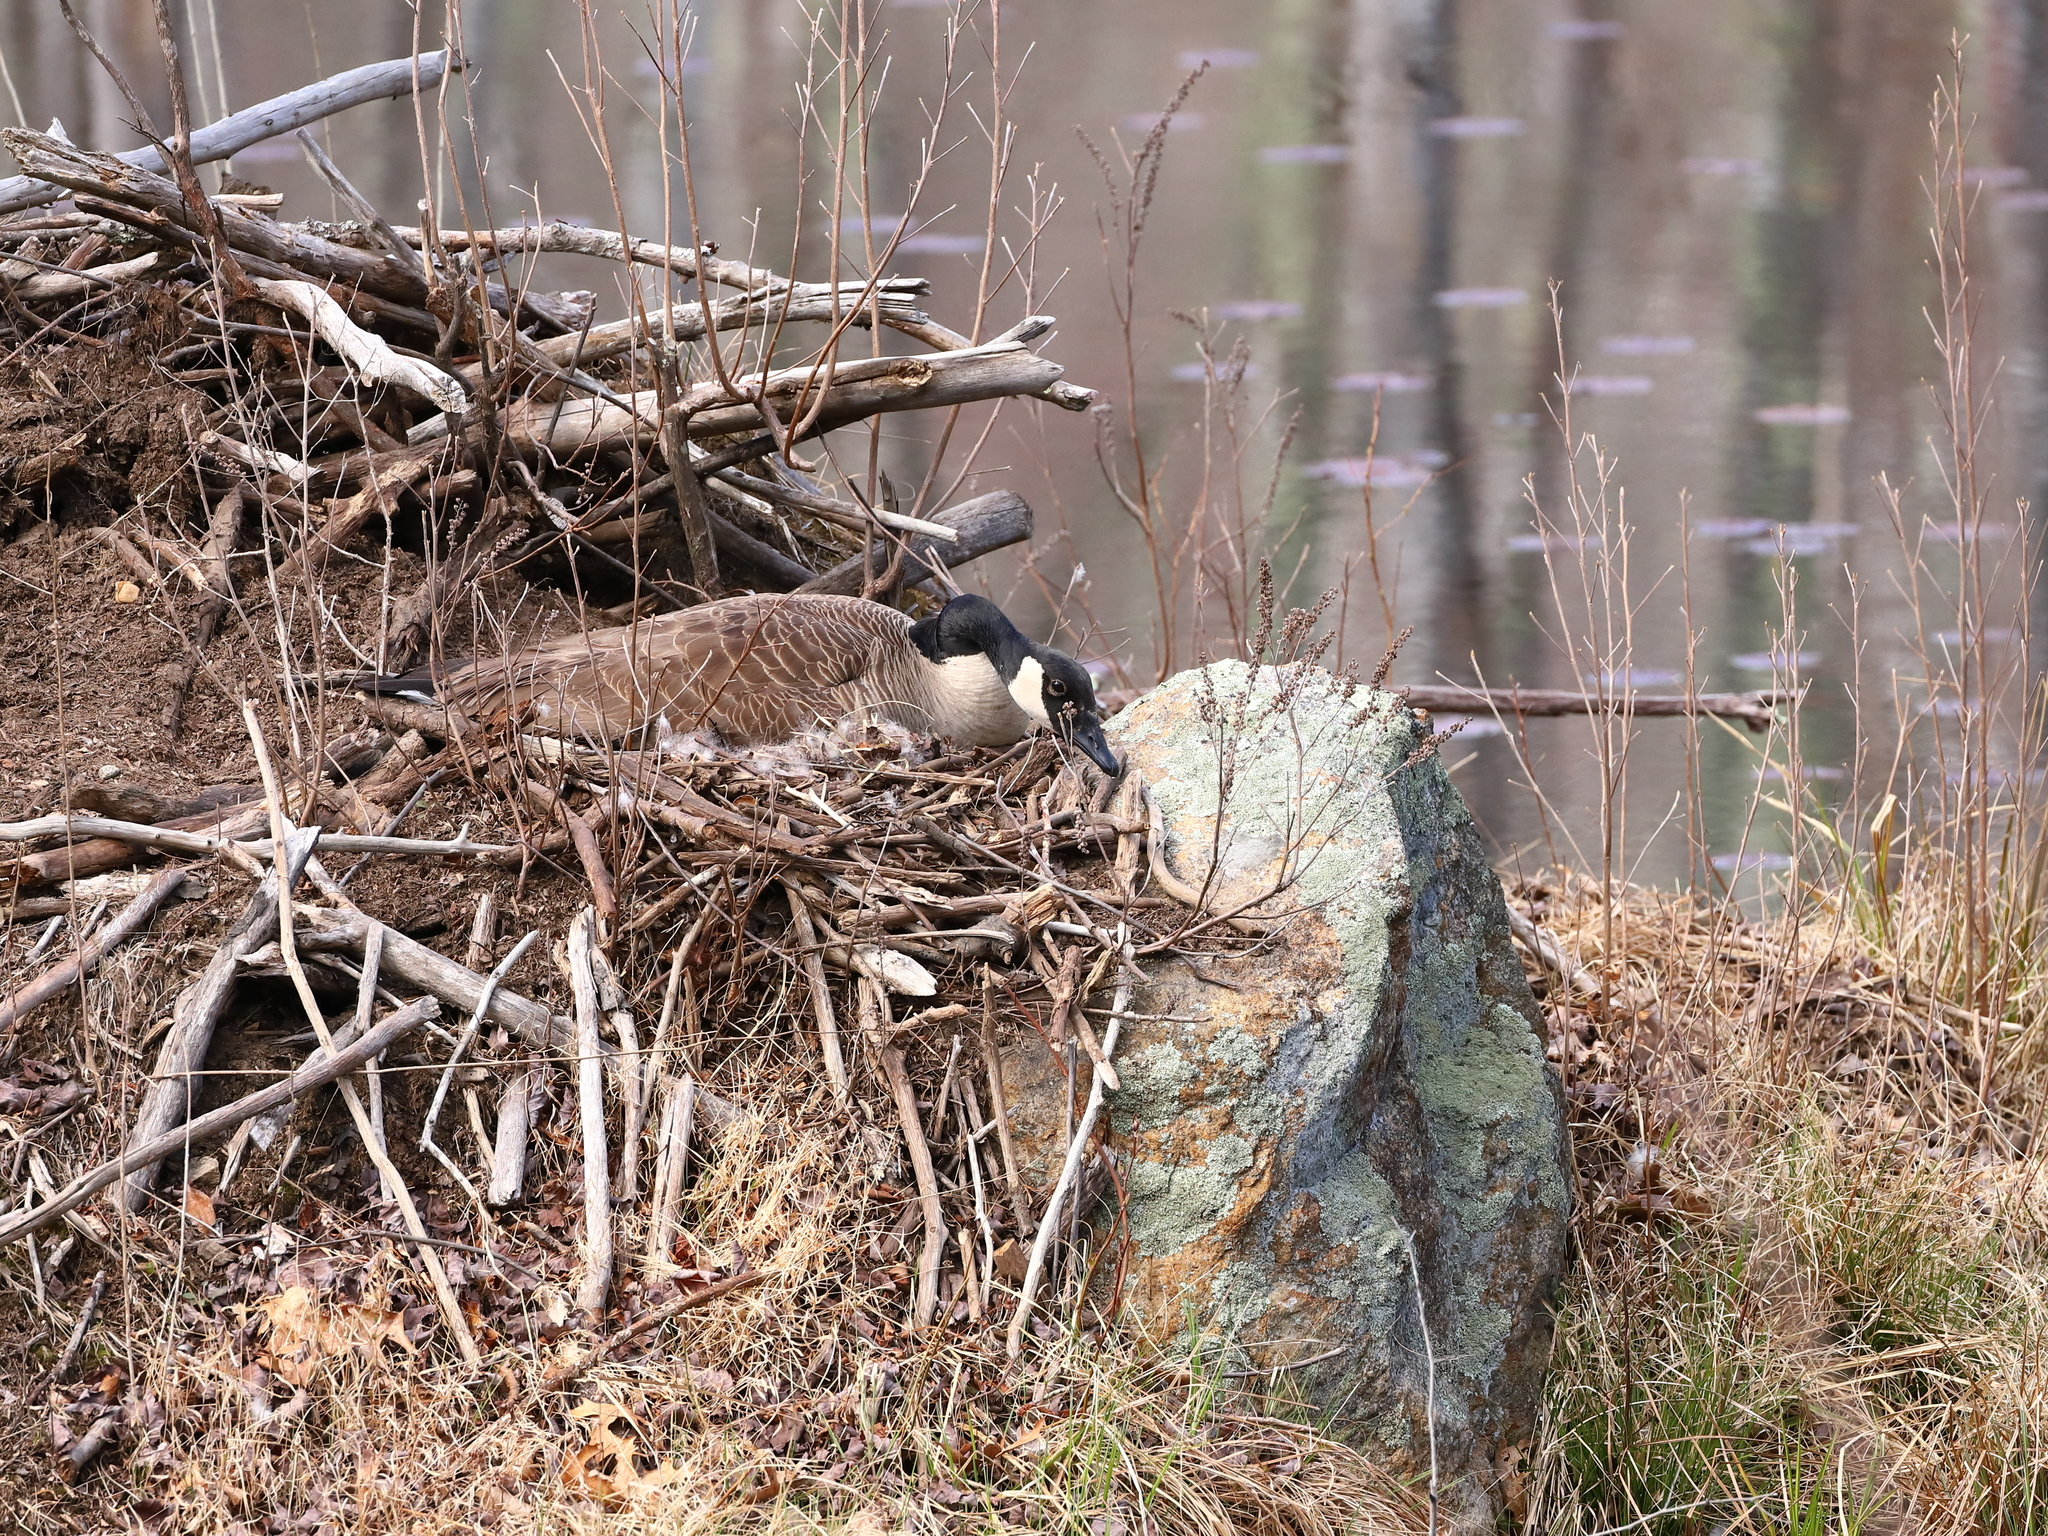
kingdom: Animalia
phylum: Chordata
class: Aves
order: Anseriformes
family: Anatidae
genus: Branta
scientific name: Branta canadensis
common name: Canada goose
